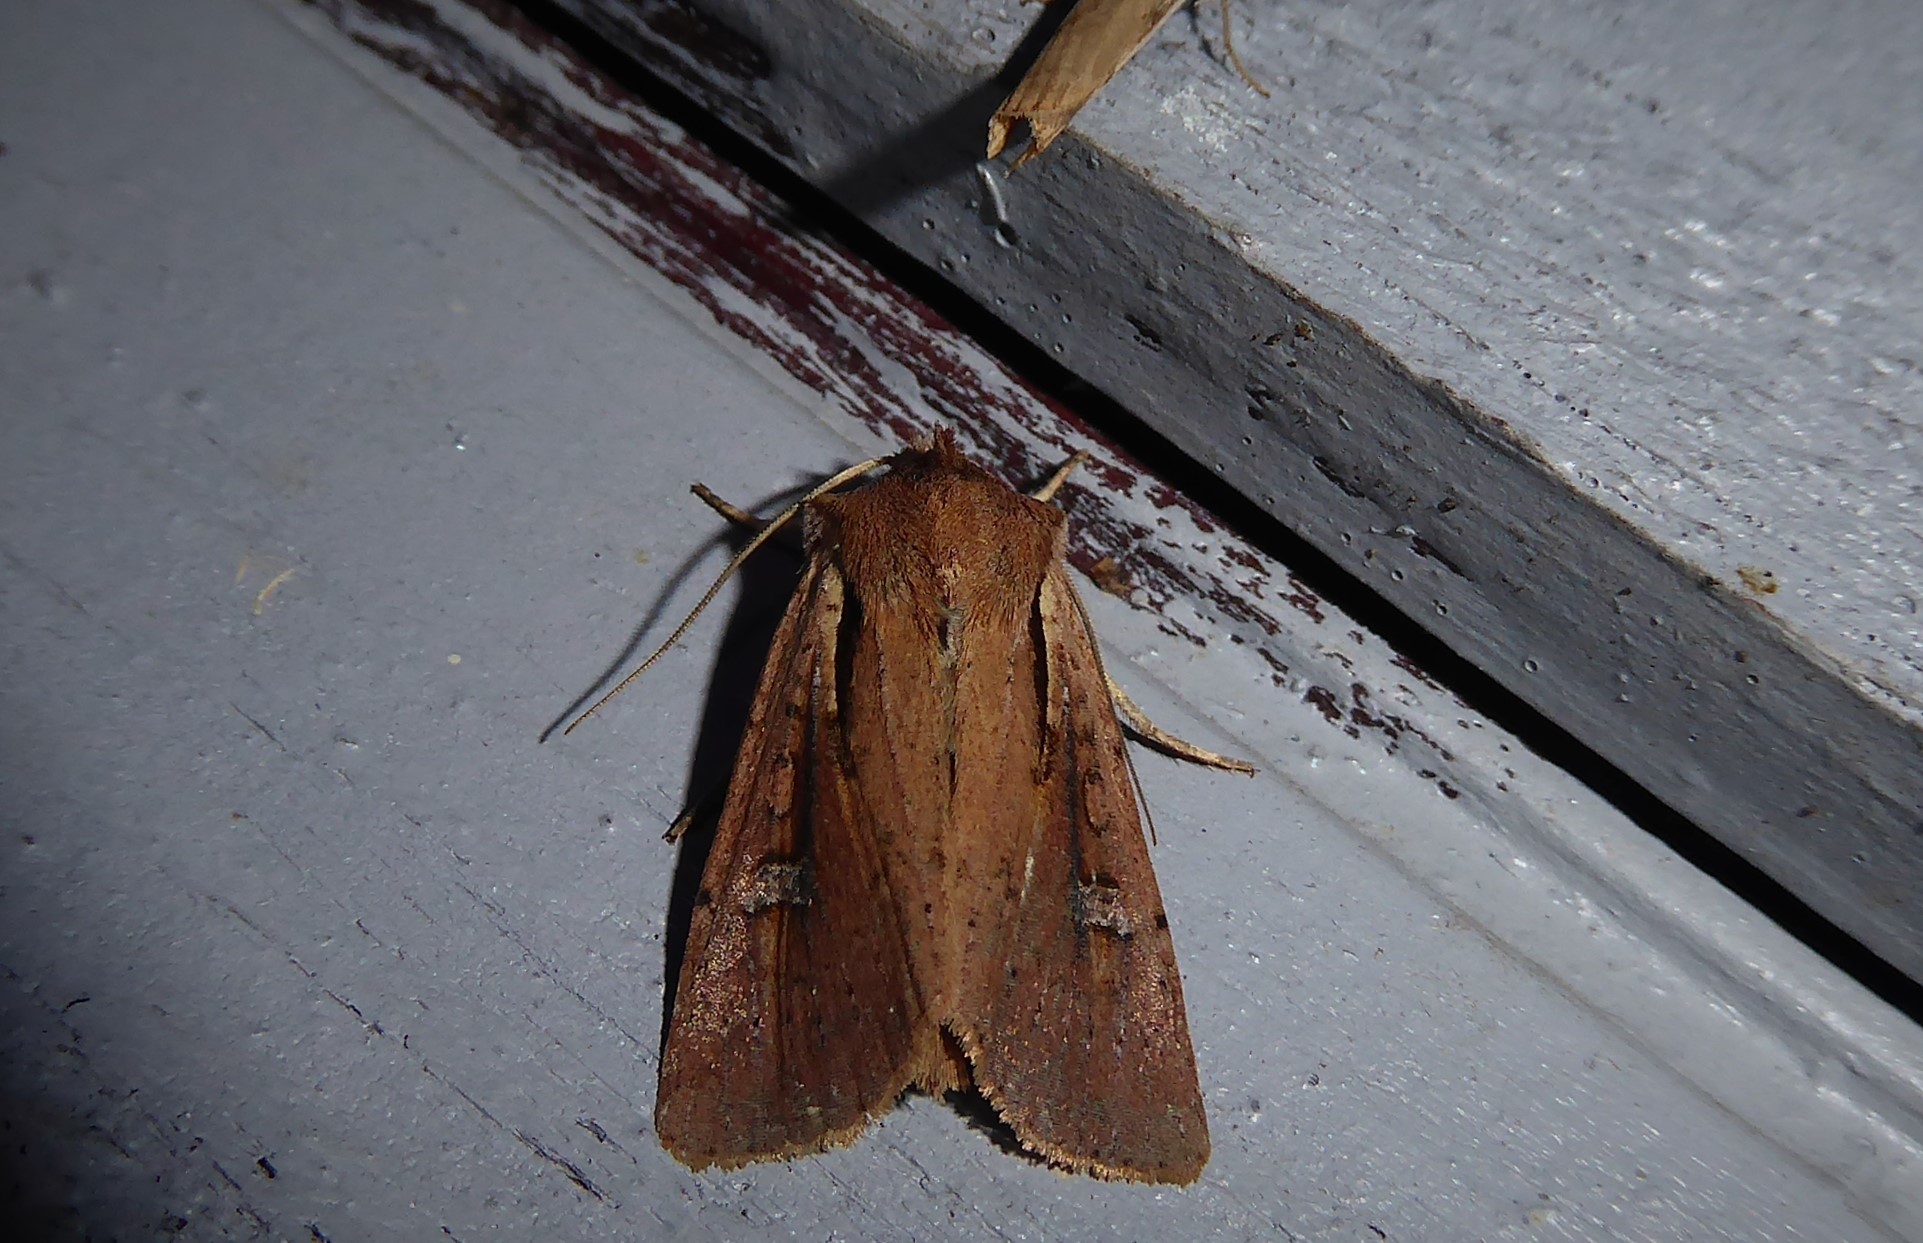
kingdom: Animalia
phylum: Arthropoda
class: Insecta
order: Lepidoptera
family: Noctuidae
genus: Ichneutica
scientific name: Ichneutica atristriga
